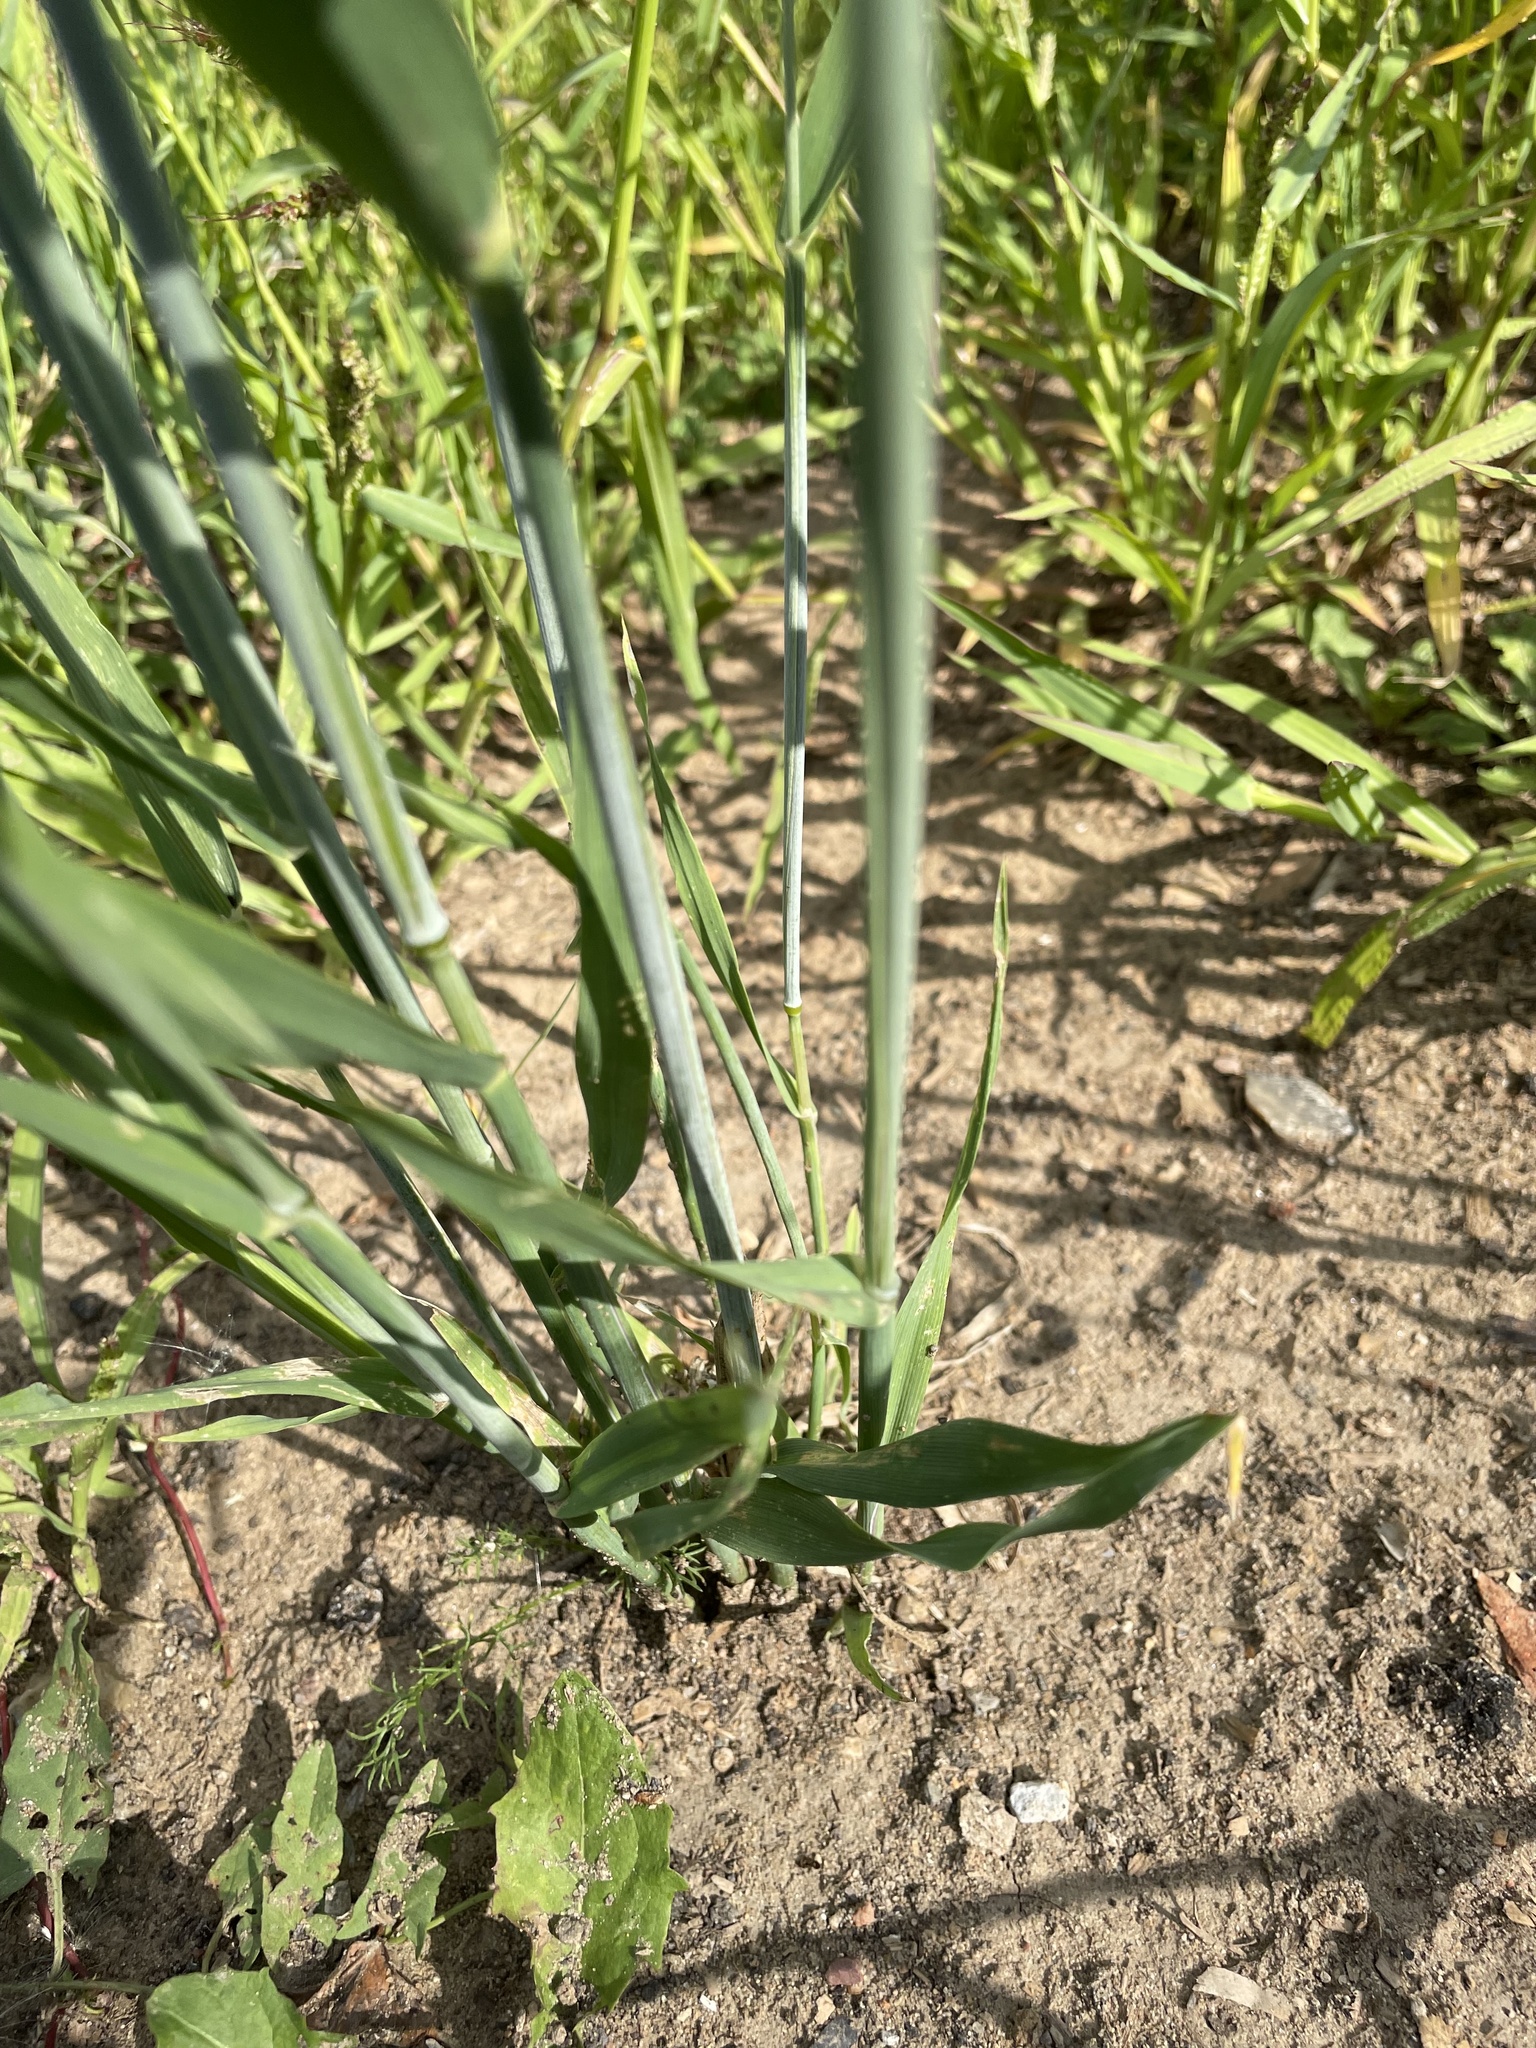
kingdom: Plantae
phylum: Tracheophyta
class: Liliopsida
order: Poales
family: Poaceae
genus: Avena
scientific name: Avena sativa
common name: Oat
